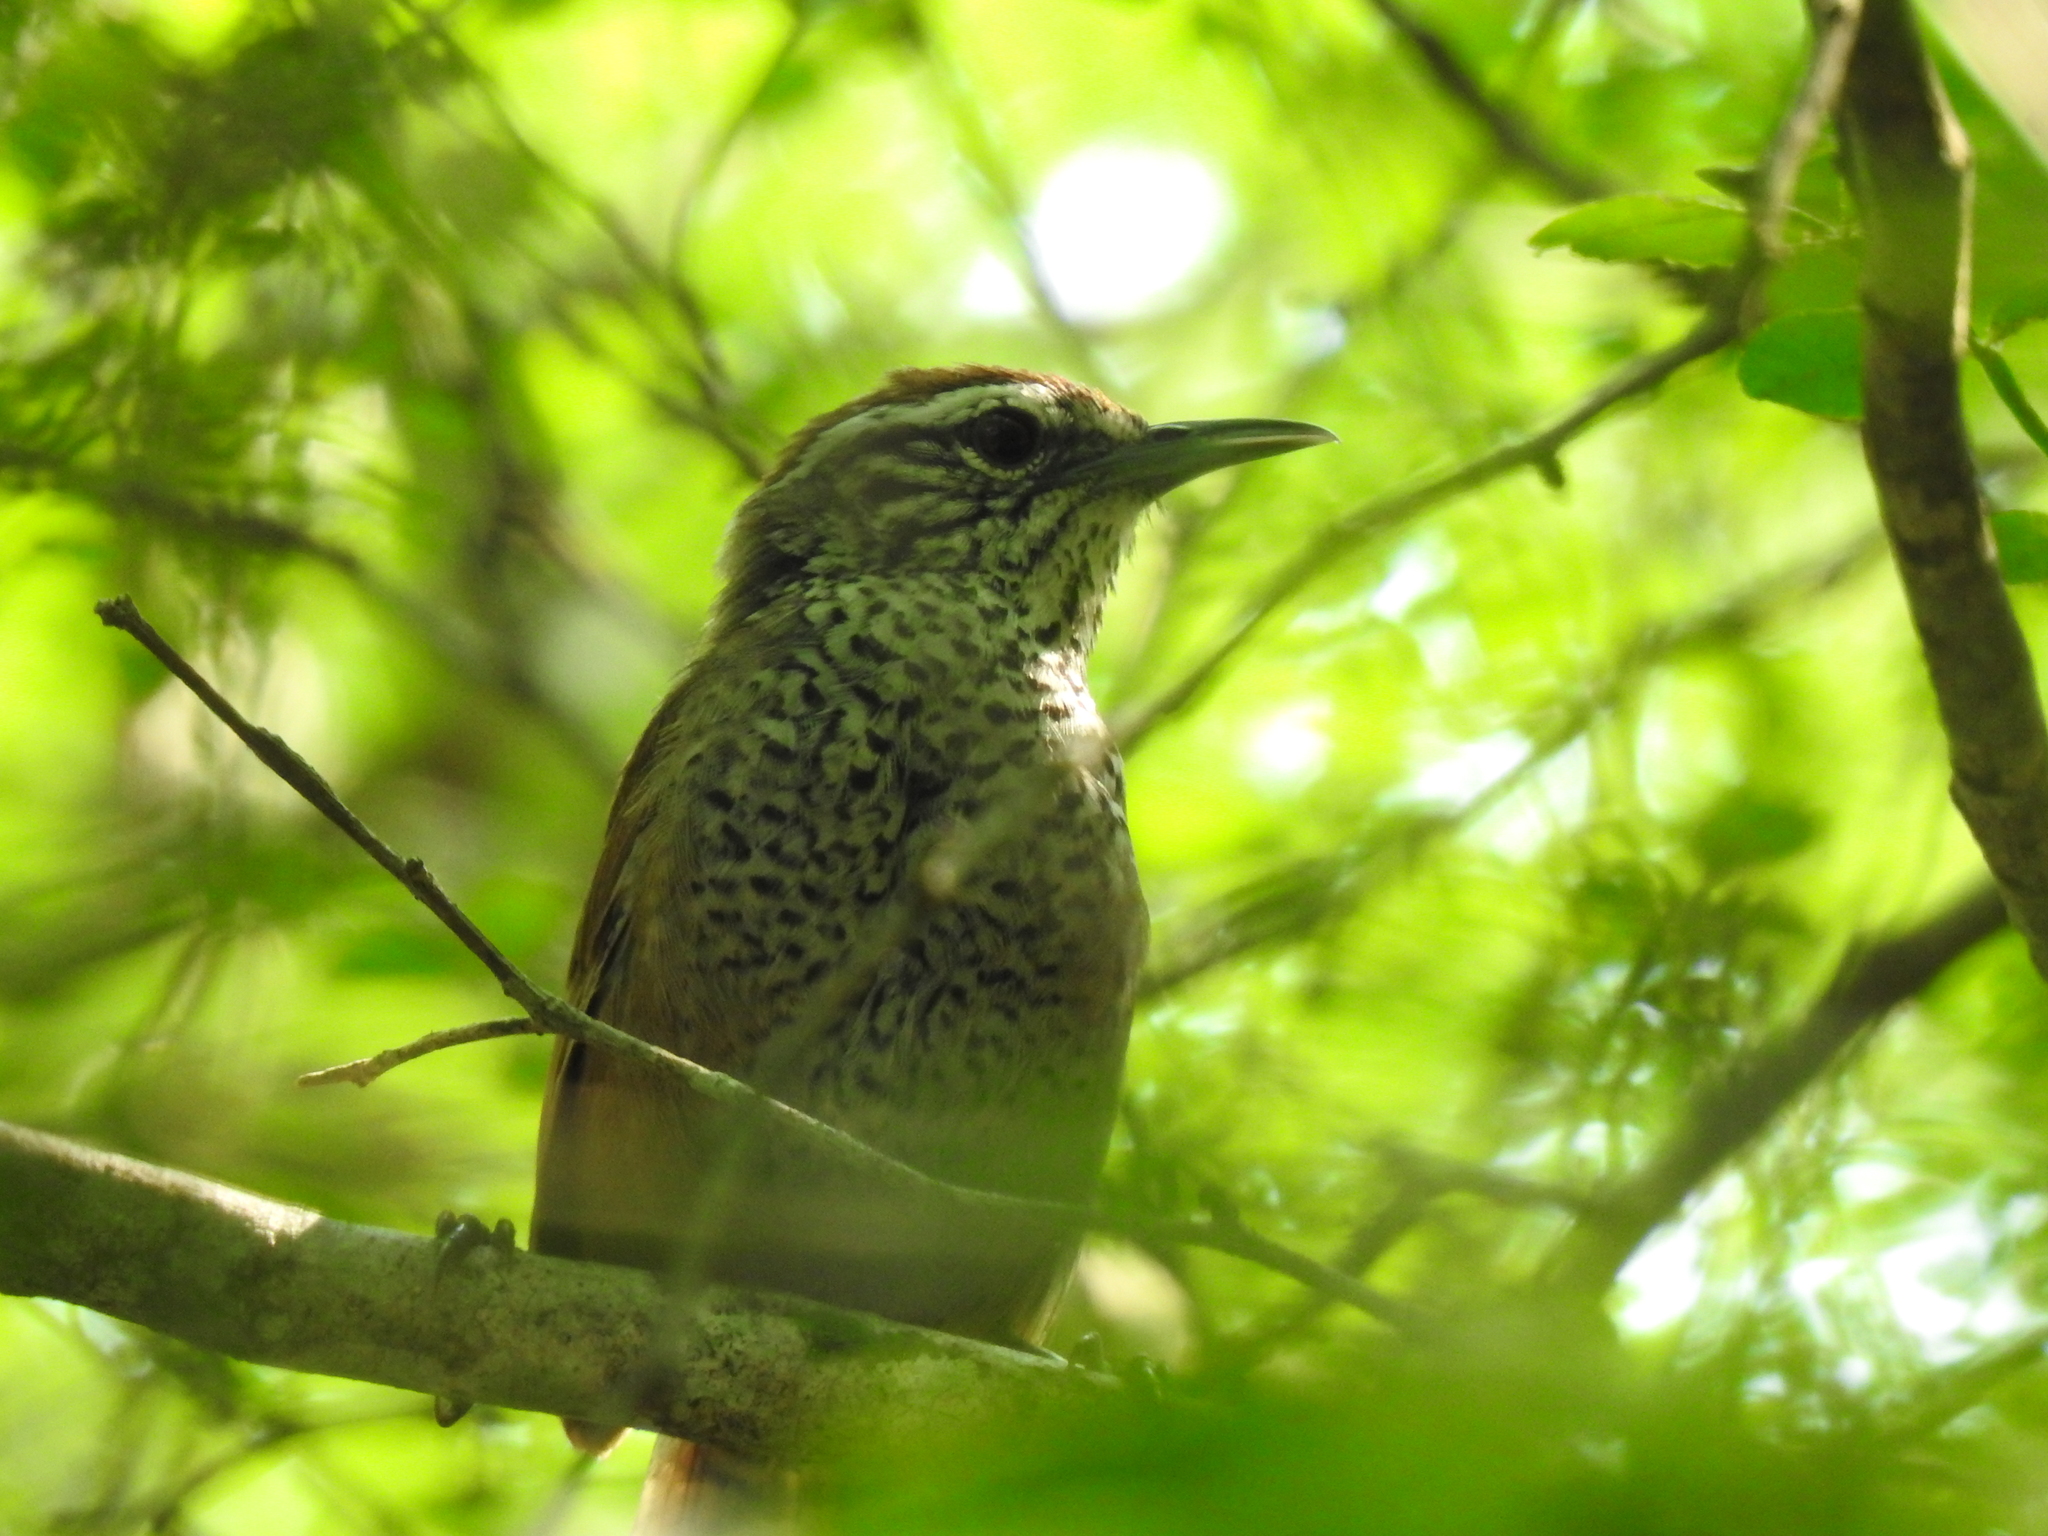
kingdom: Animalia
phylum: Chordata
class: Aves
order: Passeriformes
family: Troglodytidae
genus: Pheugopedius
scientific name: Pheugopedius maculipectus
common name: Spot-breasted wren
